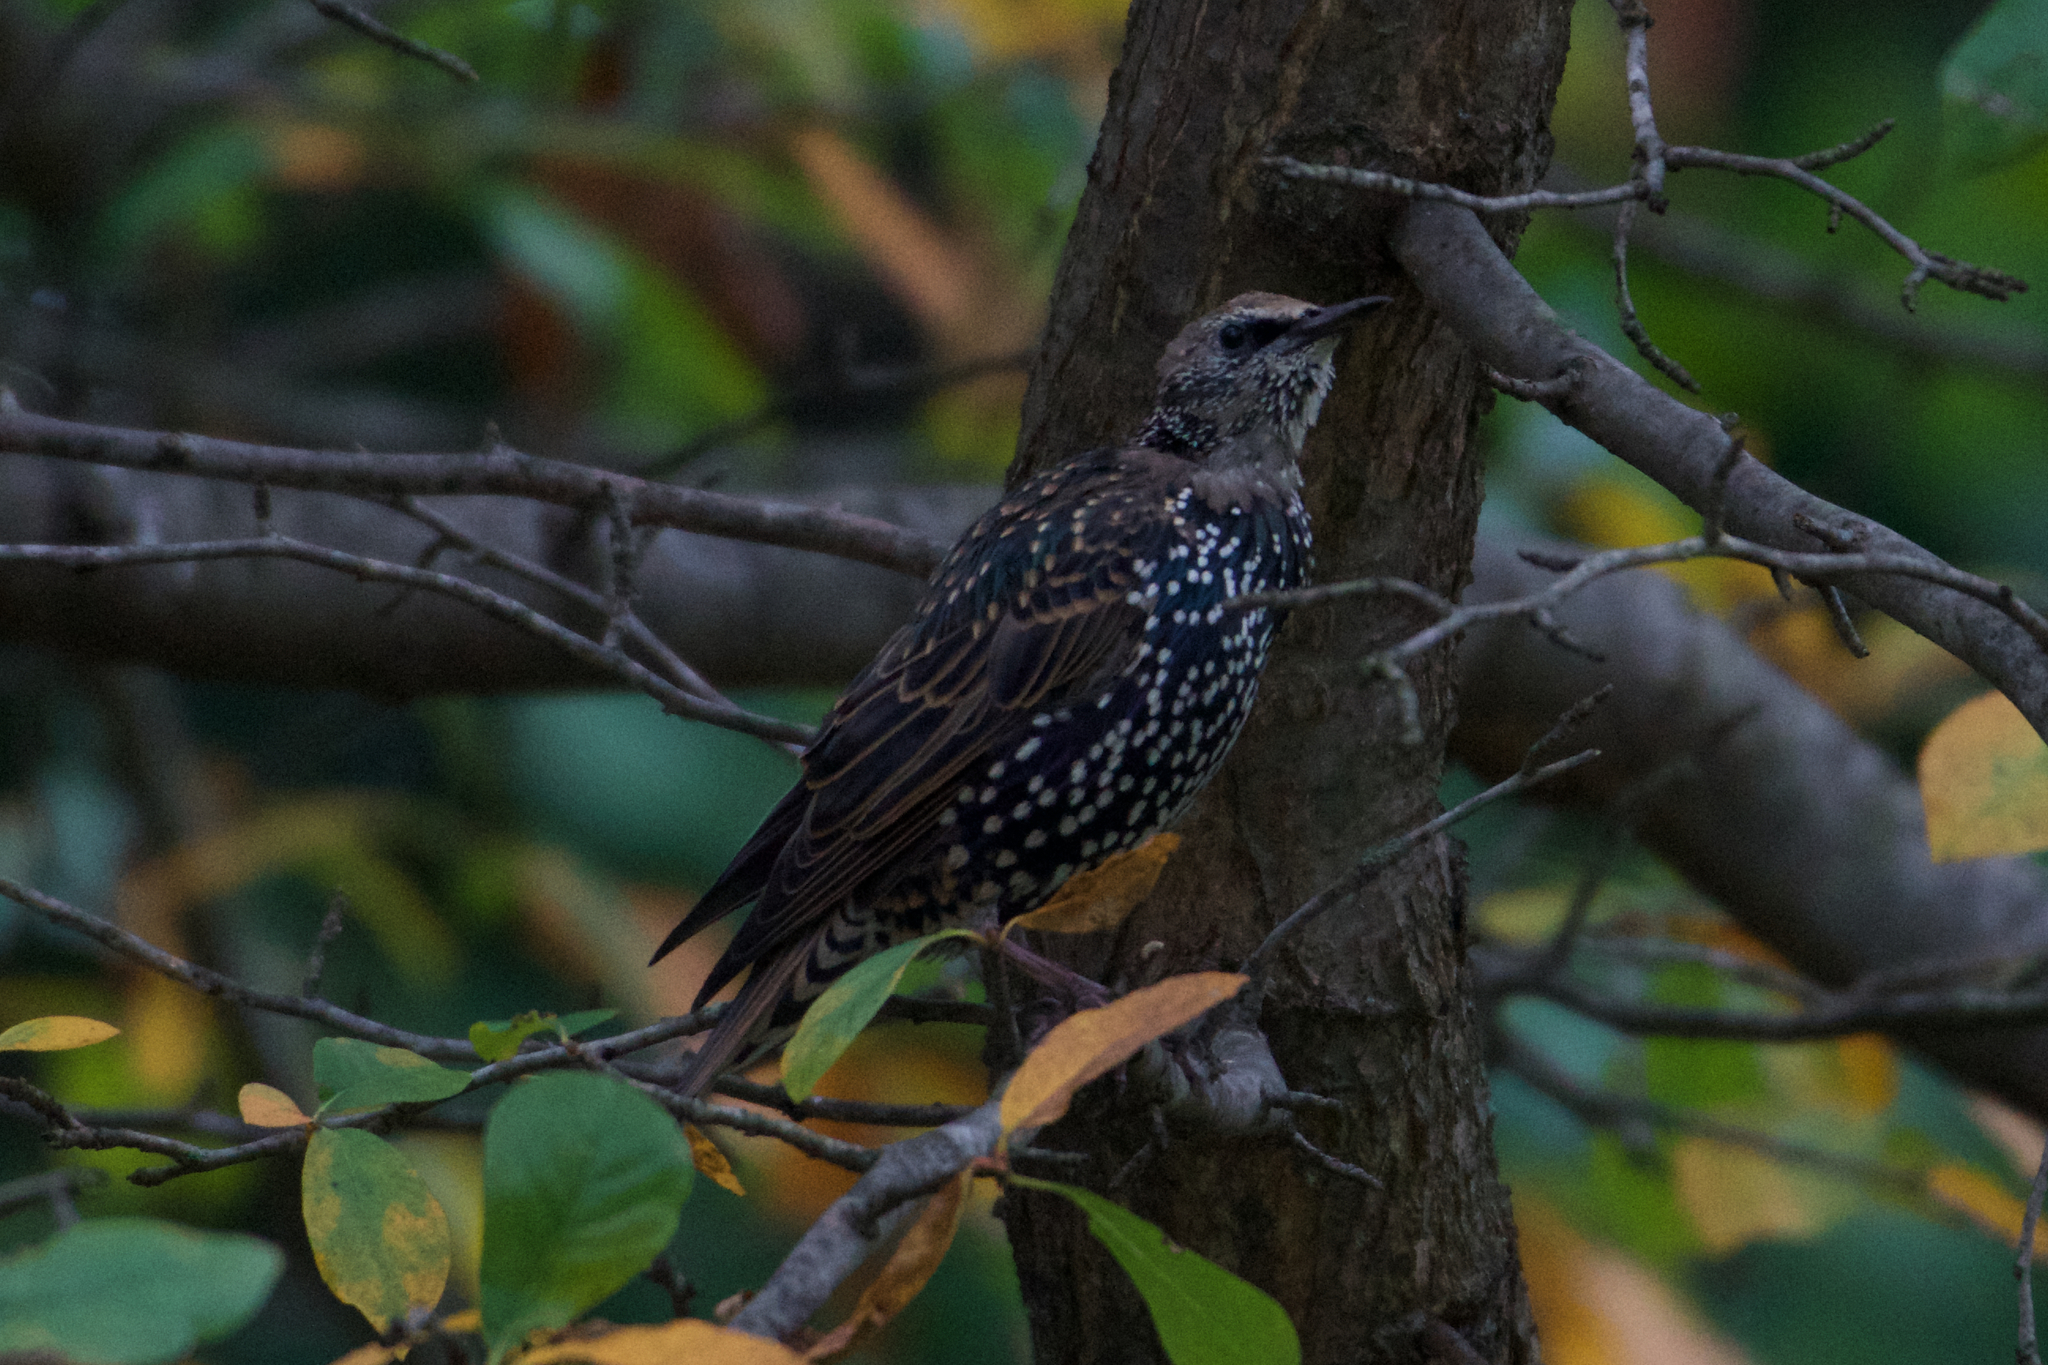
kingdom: Animalia
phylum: Chordata
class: Aves
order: Passeriformes
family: Sturnidae
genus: Sturnus
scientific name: Sturnus vulgaris
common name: Common starling
